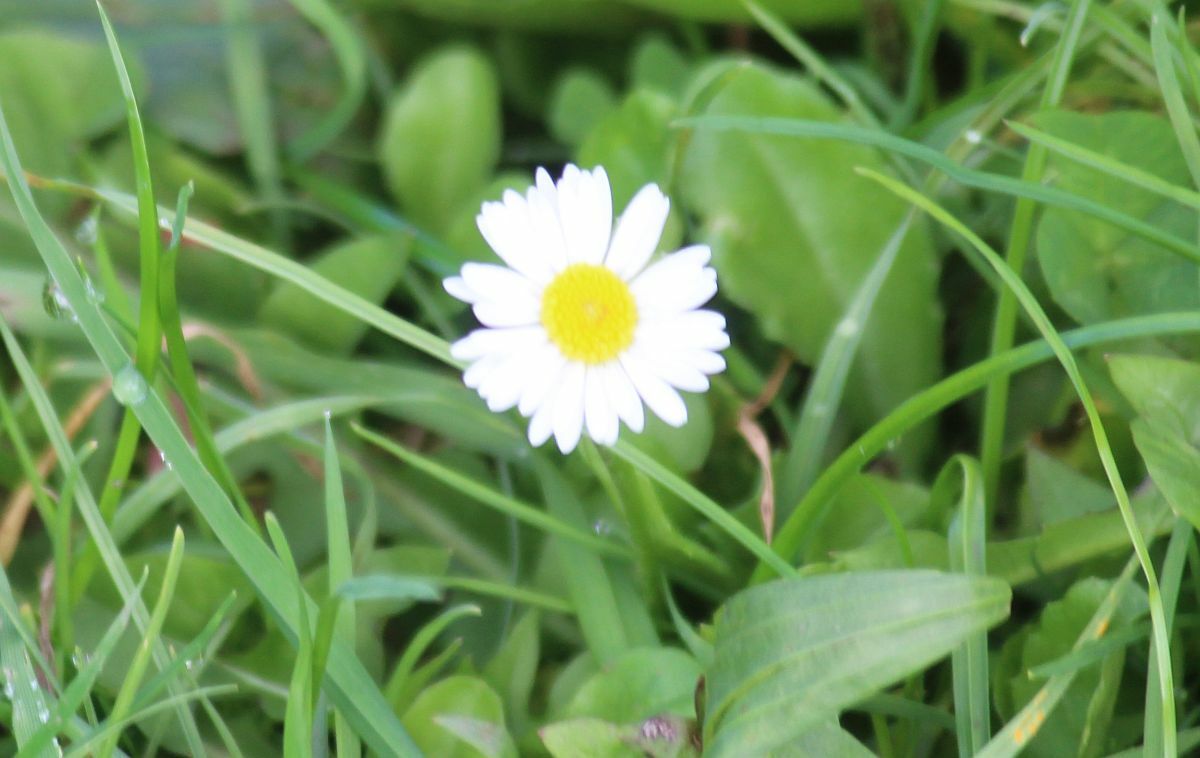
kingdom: Plantae
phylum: Tracheophyta
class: Magnoliopsida
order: Asterales
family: Asteraceae
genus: Bellis
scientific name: Bellis perennis
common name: Lawndaisy
